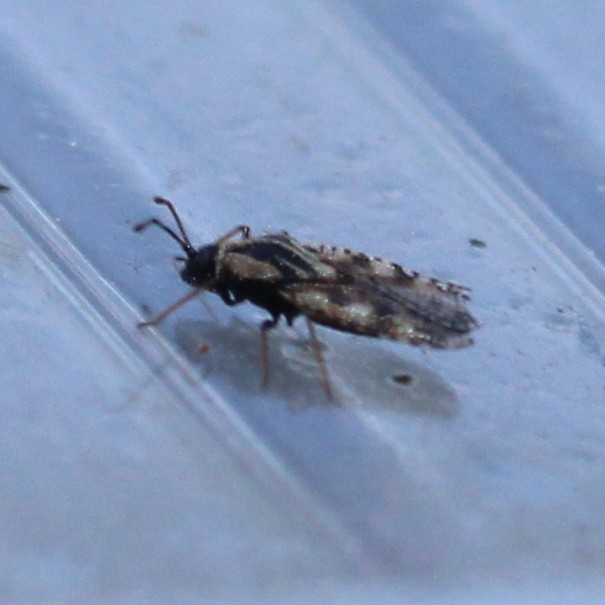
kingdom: Animalia
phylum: Arthropoda
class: Insecta
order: Hemiptera
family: Tingidae
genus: Dictyla
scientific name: Dictyla echii
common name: Lace bug
